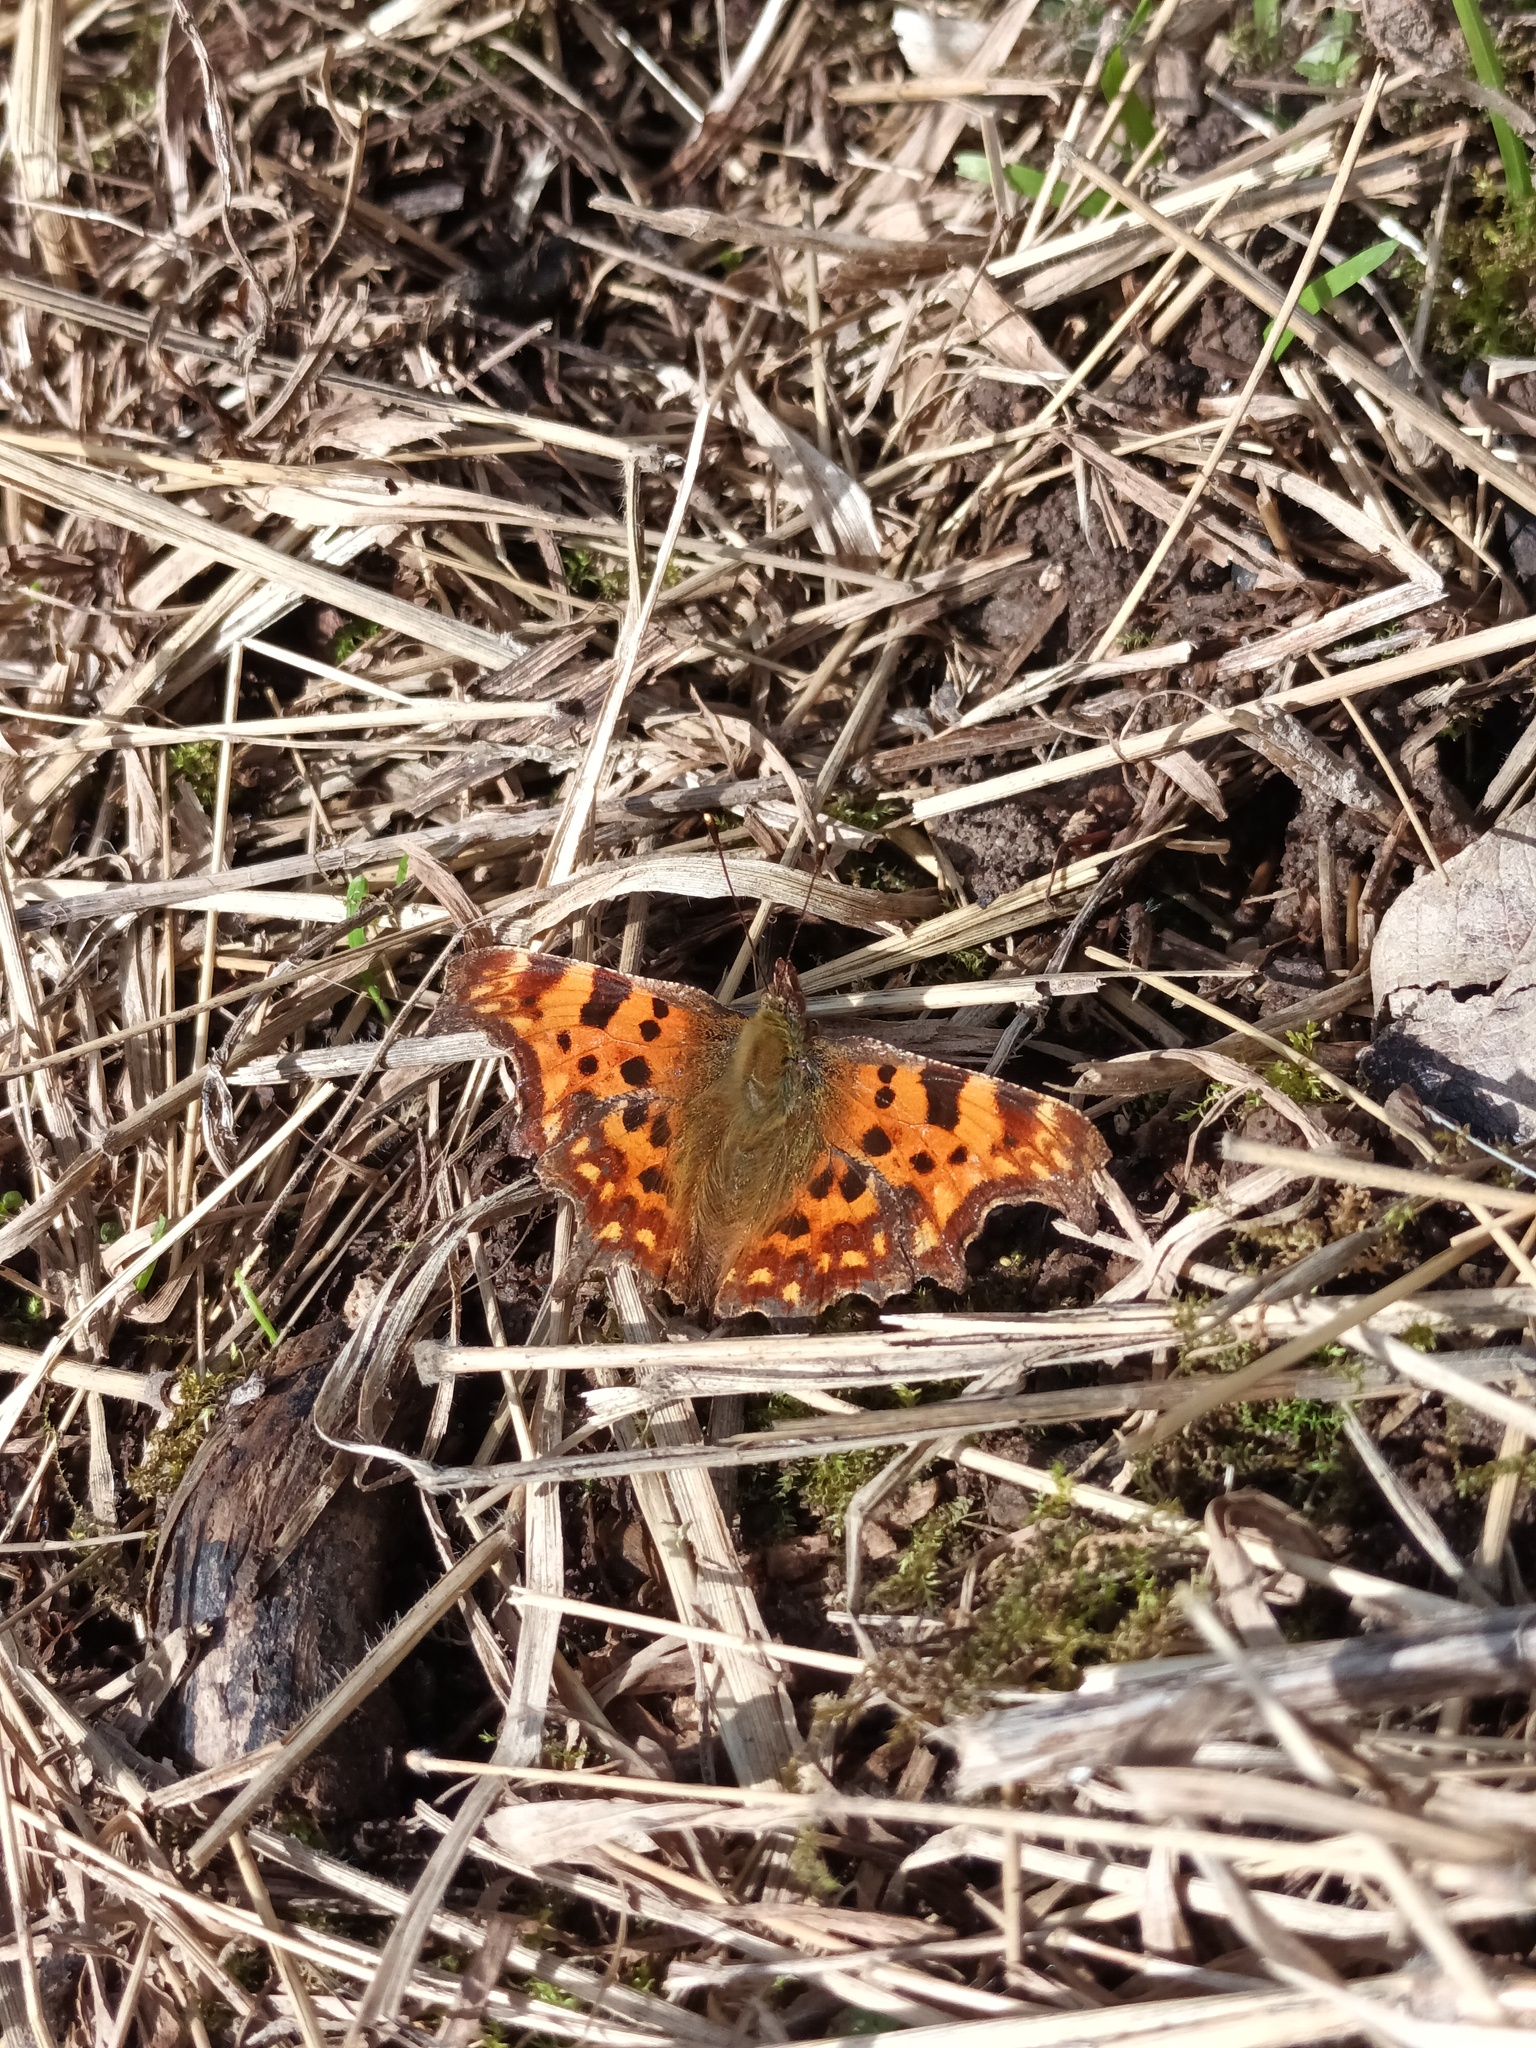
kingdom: Animalia
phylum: Arthropoda
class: Insecta
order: Lepidoptera
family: Nymphalidae
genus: Polygonia
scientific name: Polygonia c-album
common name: Comma
